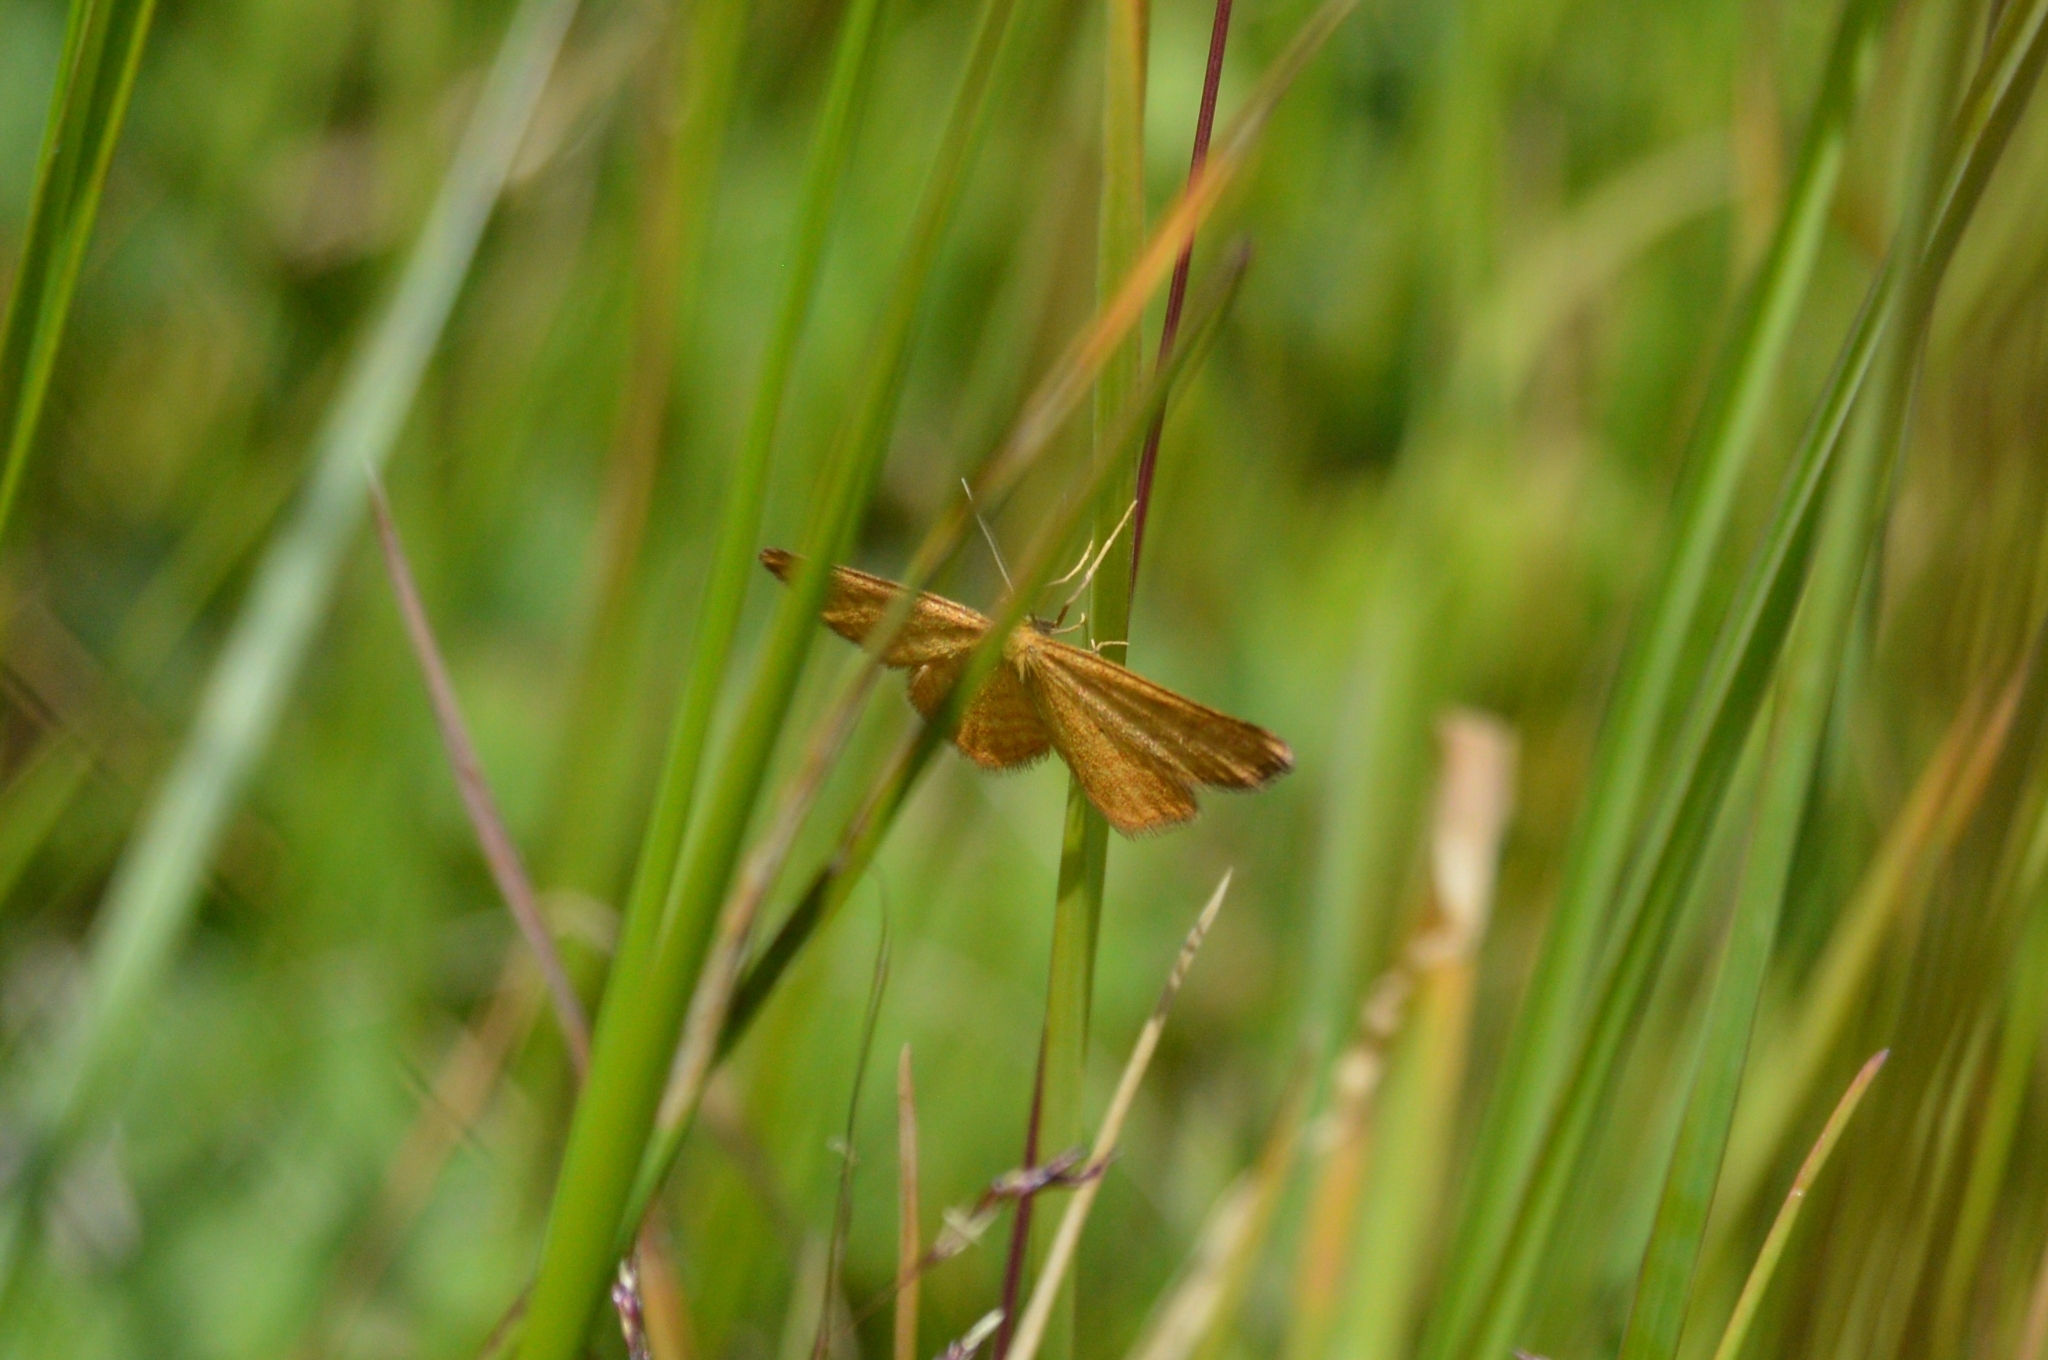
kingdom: Animalia
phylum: Arthropoda
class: Insecta
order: Lepidoptera
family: Geometridae
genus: Idaea
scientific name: Idaea serpentata
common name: Ochraceous wave
